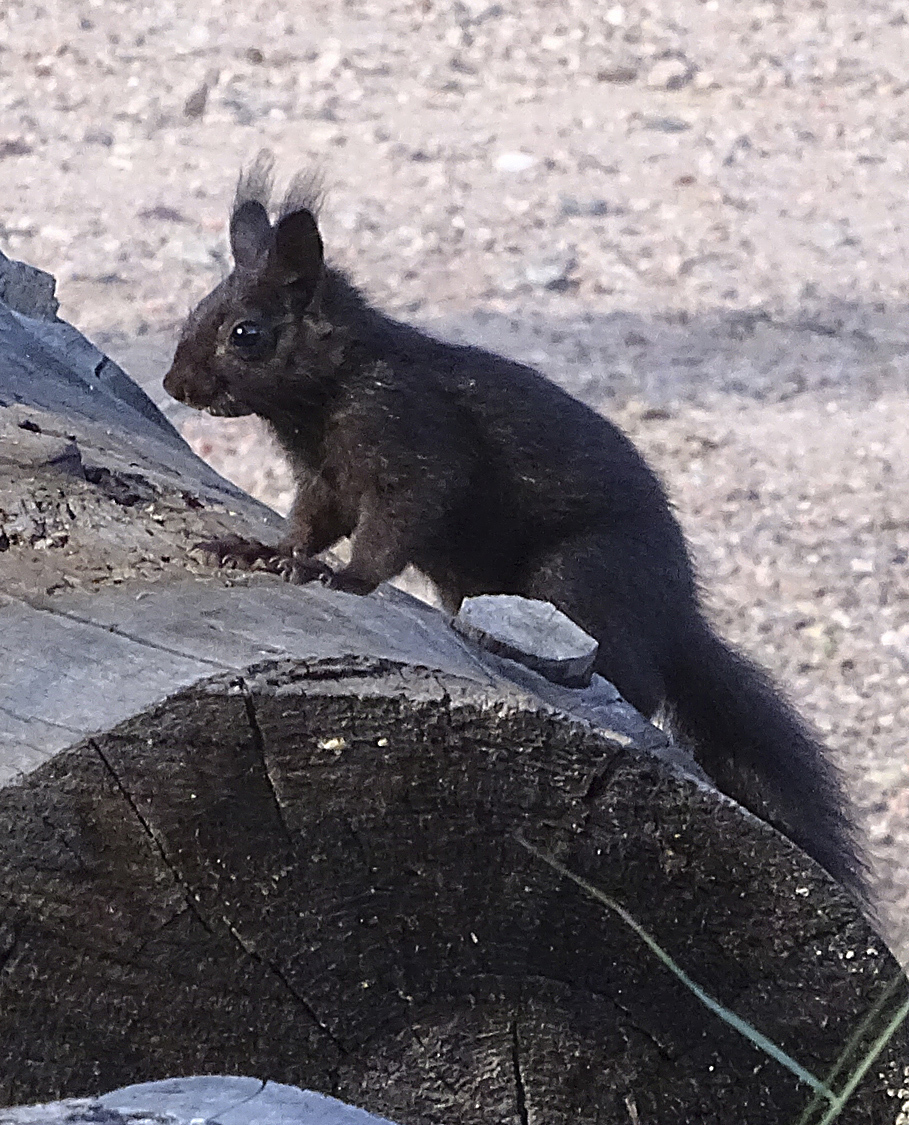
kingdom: Animalia
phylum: Chordata
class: Mammalia
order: Rodentia
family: Sciuridae
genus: Sciurus
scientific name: Sciurus aberti
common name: Abert's squirrel
